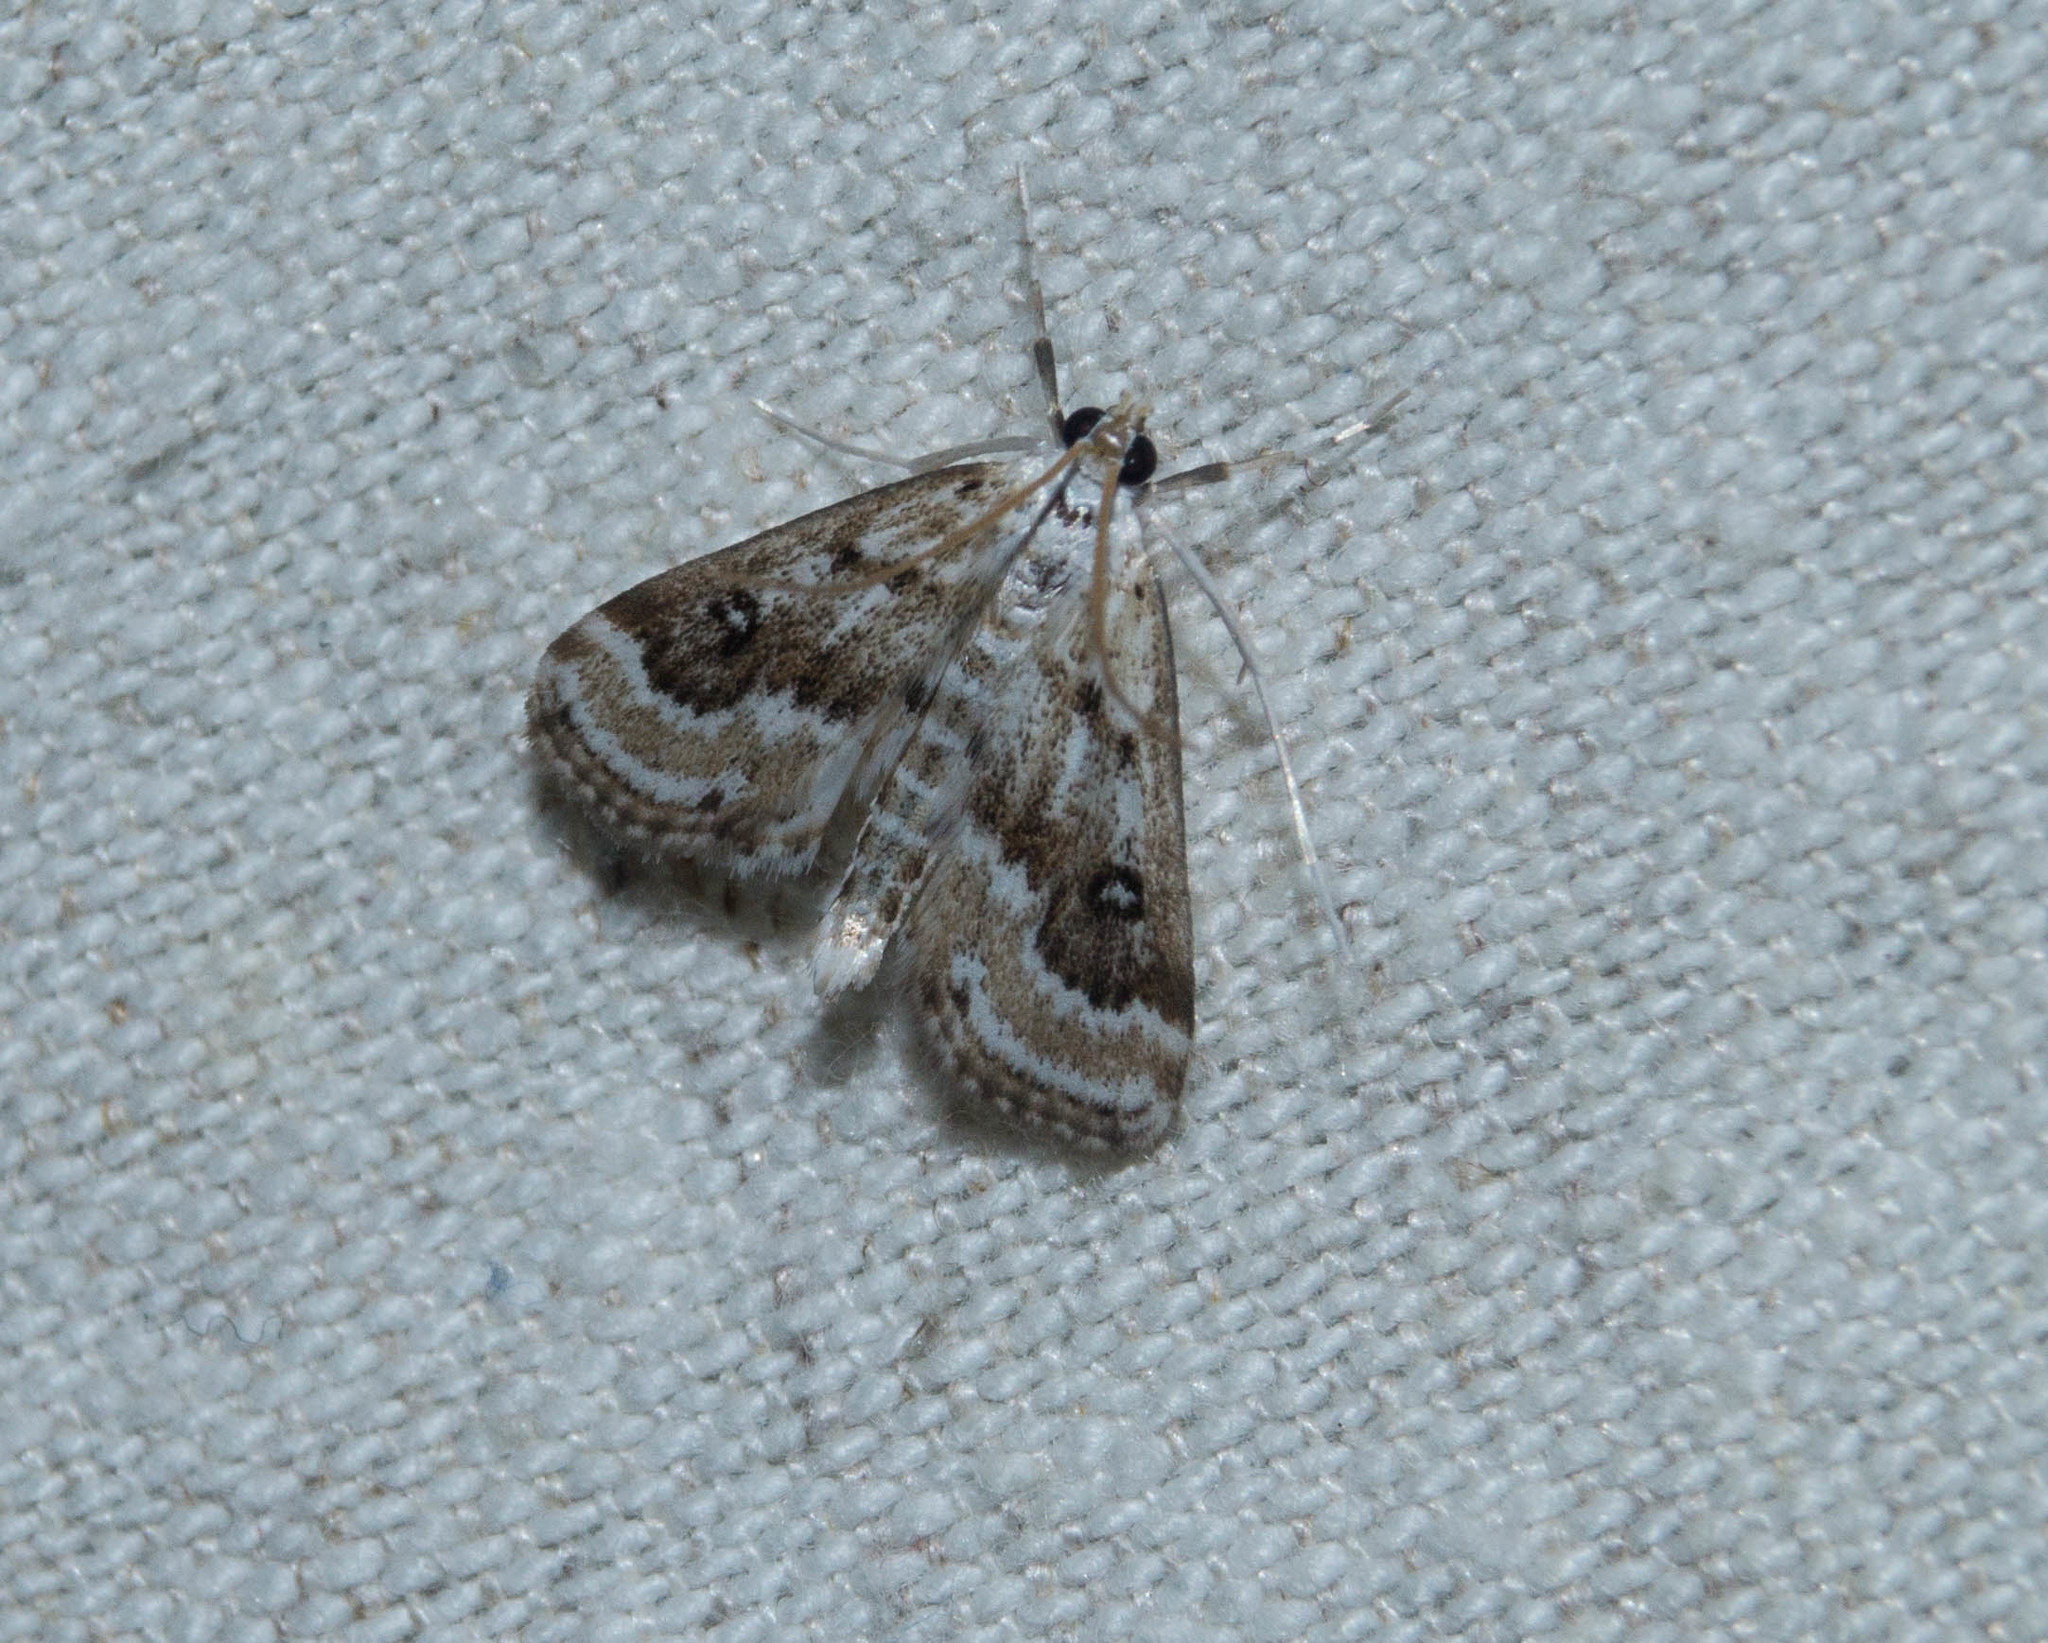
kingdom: Animalia
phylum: Arthropoda
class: Insecta
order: Lepidoptera
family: Crambidae
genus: Parapoynx
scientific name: Parapoynx stratiotata
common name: Ringed china-mark
